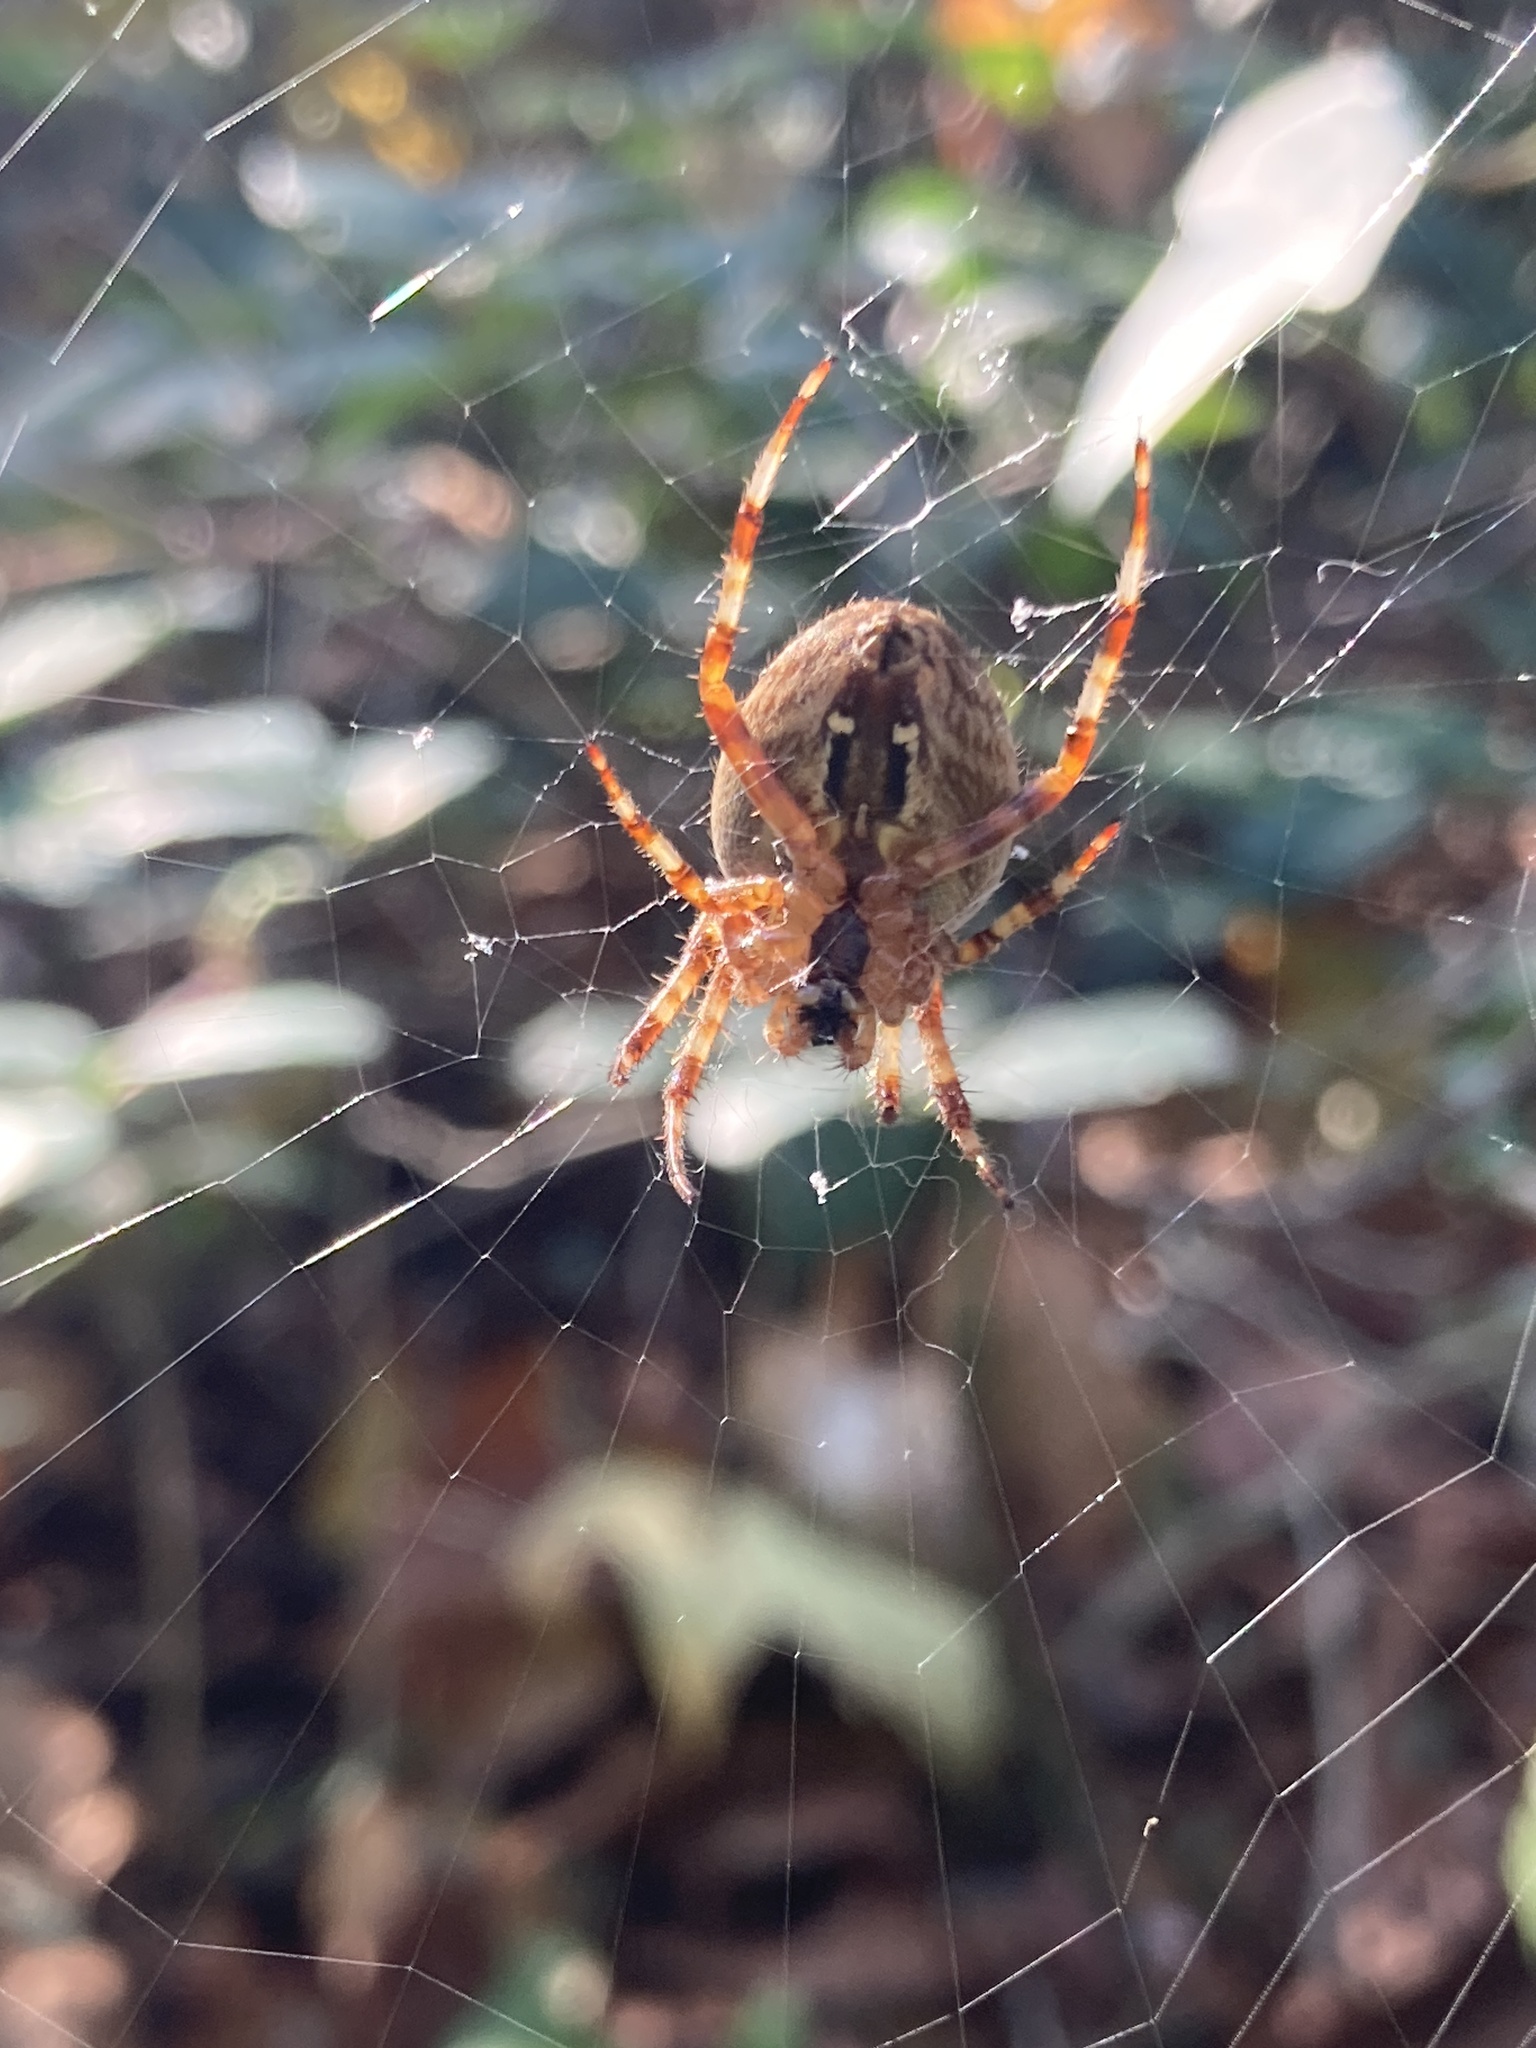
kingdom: Animalia
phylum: Arthropoda
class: Arachnida
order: Araneae
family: Araneidae
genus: Araneus
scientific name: Araneus diadematus
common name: Cross orbweaver
